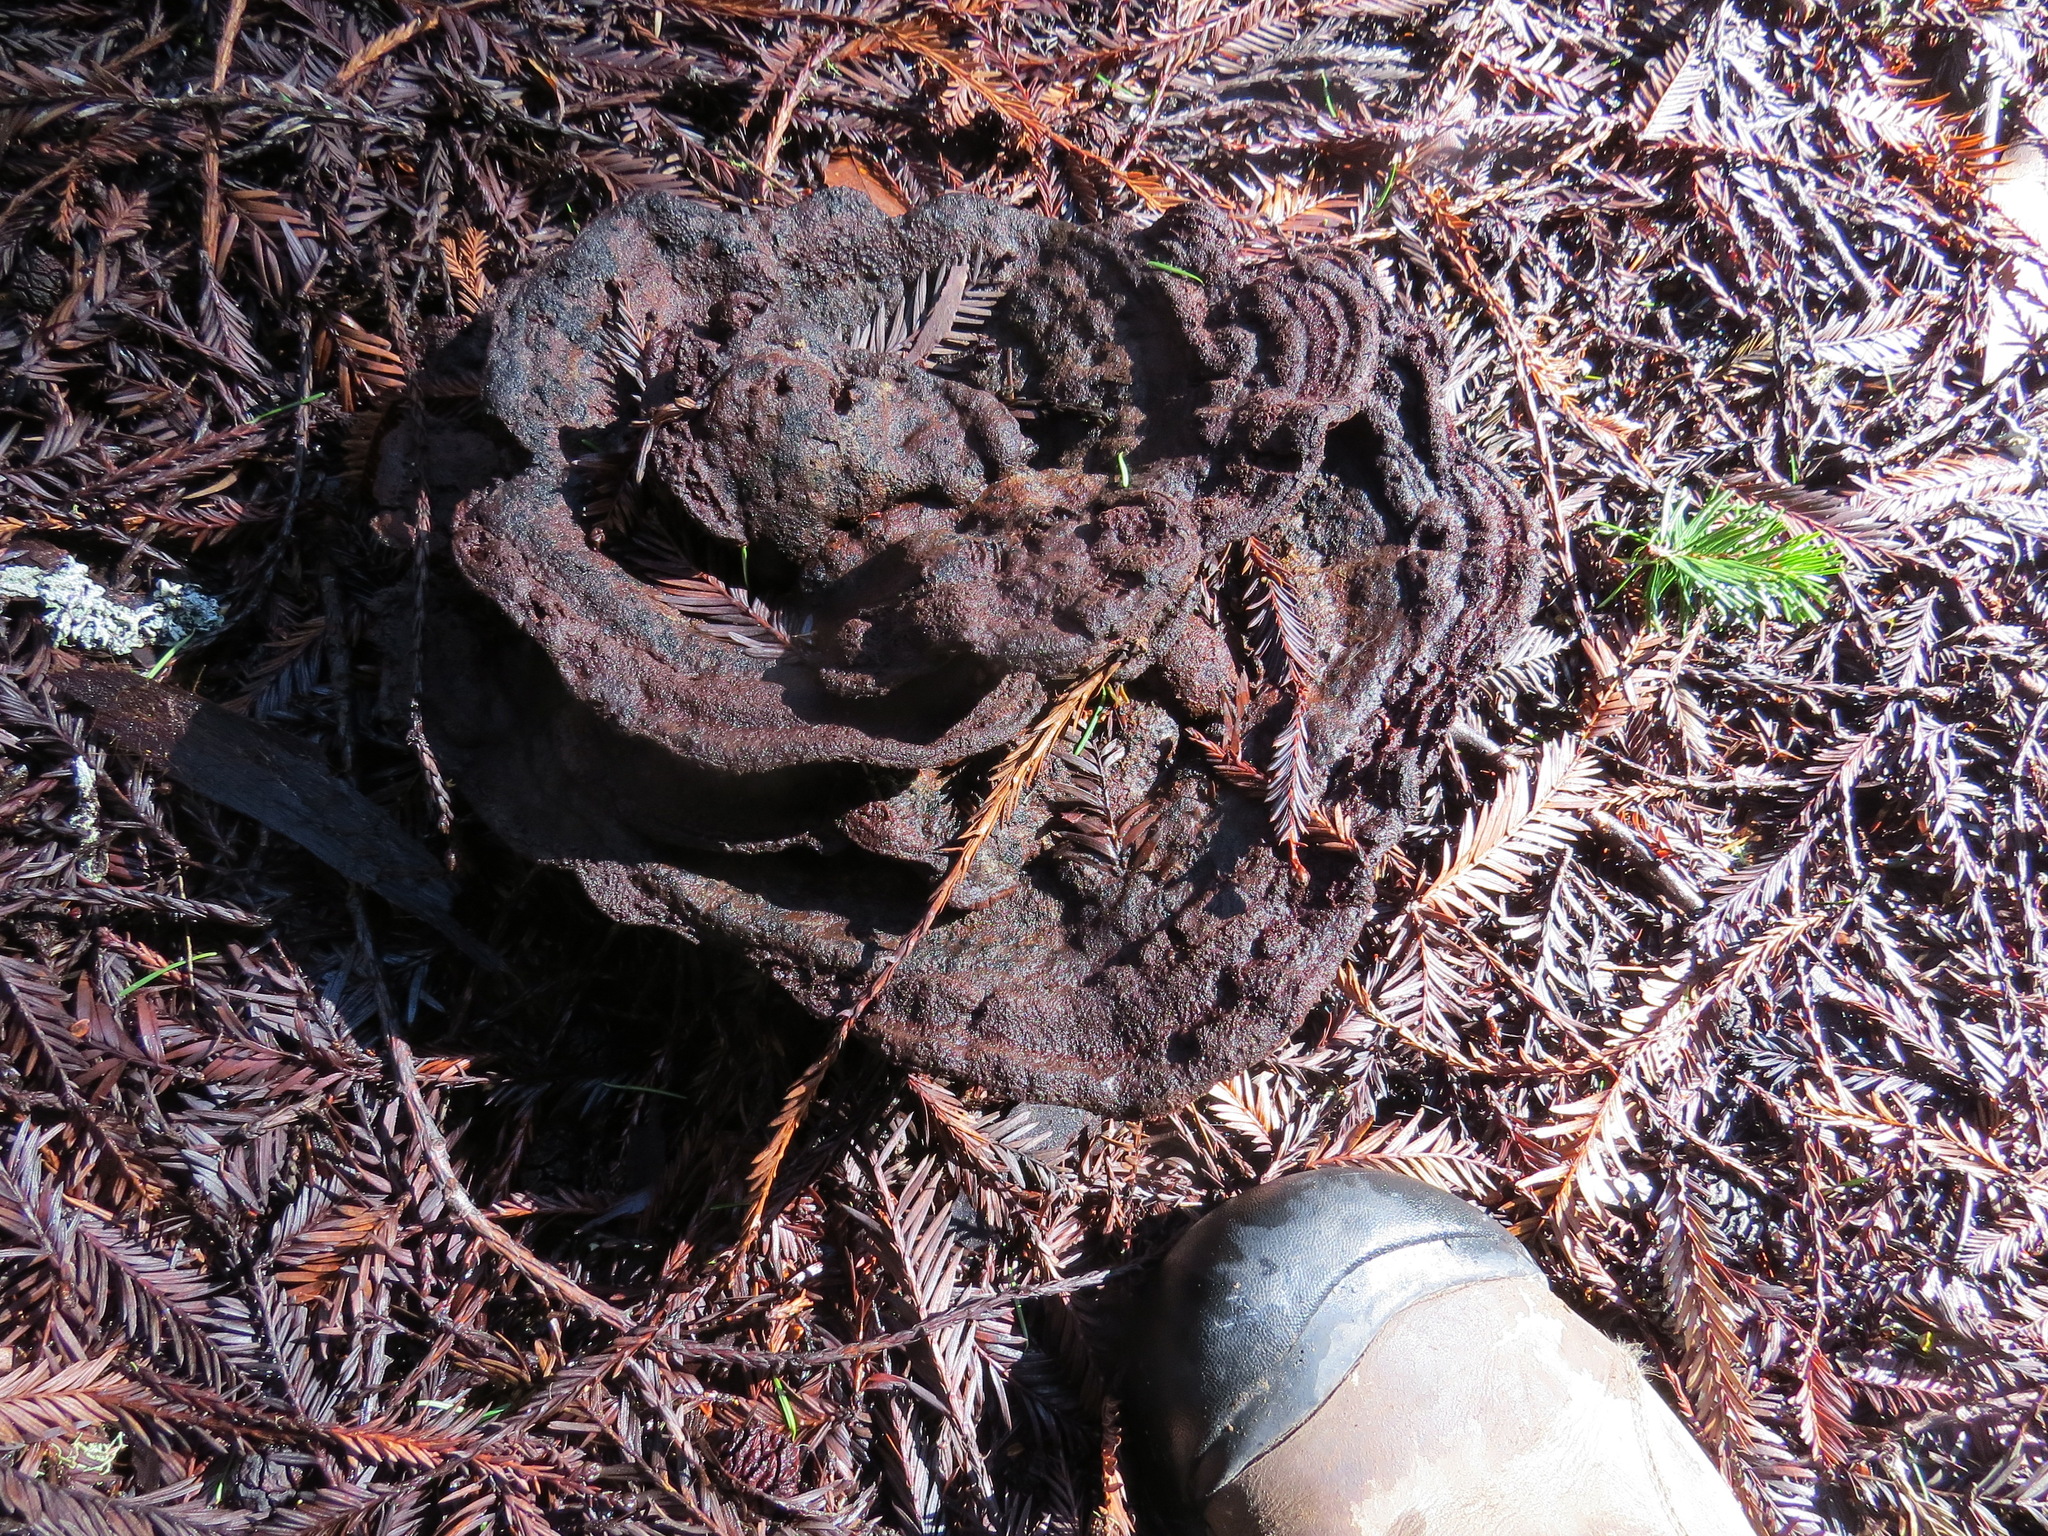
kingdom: Fungi
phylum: Basidiomycota
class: Agaricomycetes
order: Polyporales
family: Laetiporaceae
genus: Phaeolus
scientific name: Phaeolus schweinitzii
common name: Dyer's mazegill
